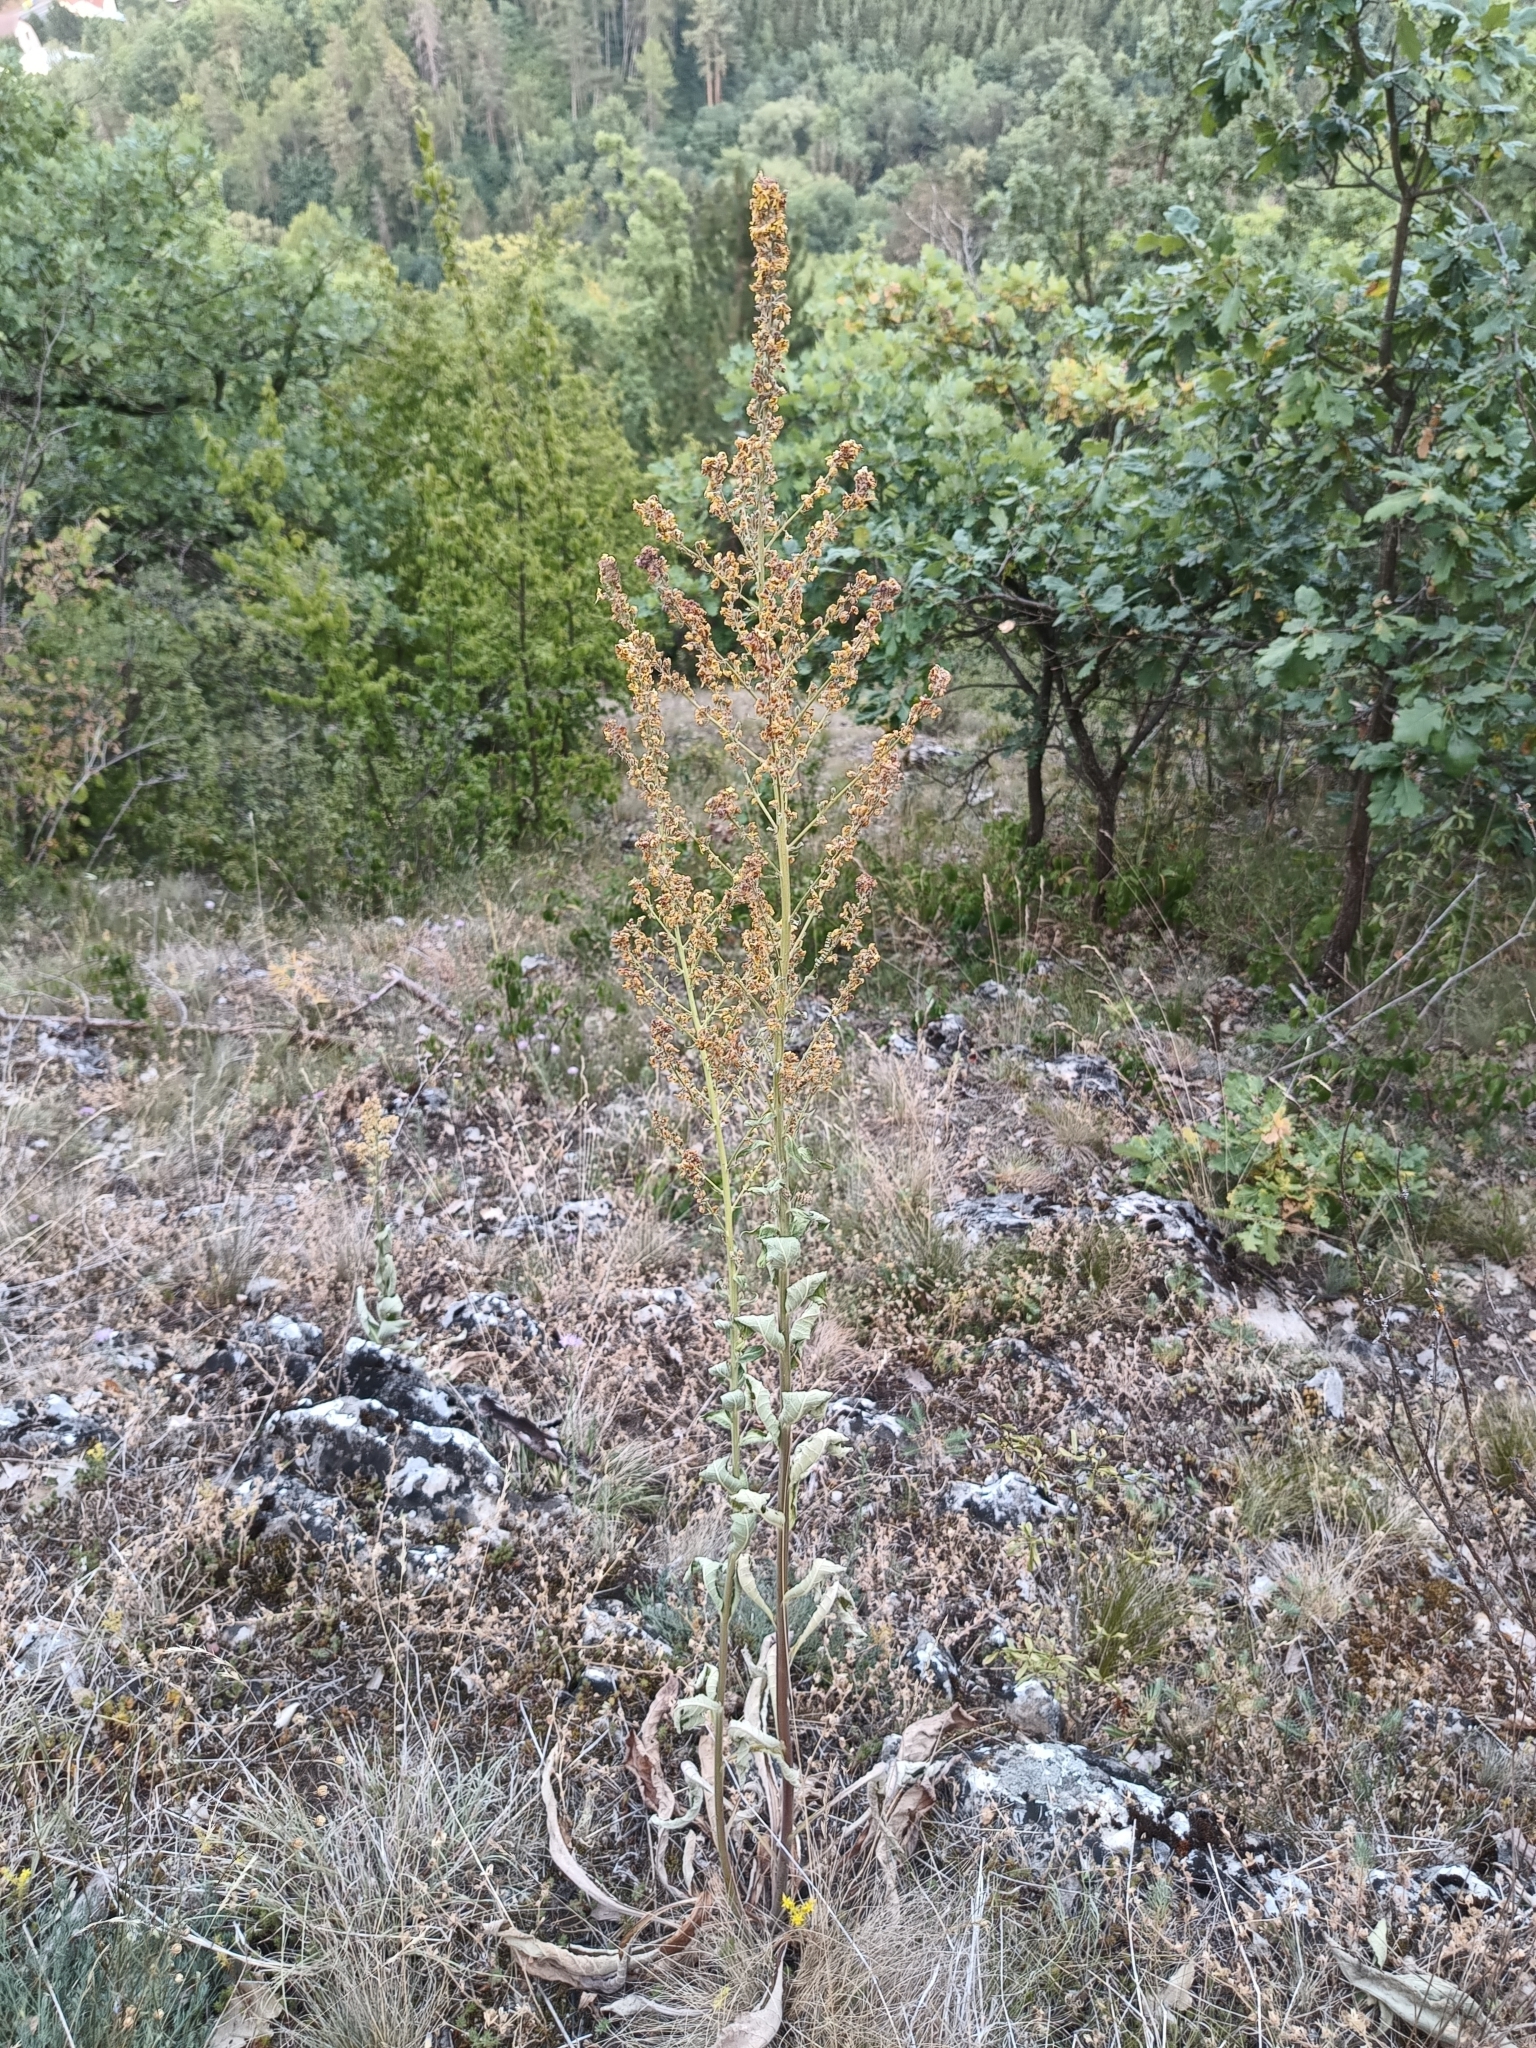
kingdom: Plantae
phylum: Tracheophyta
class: Magnoliopsida
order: Lamiales
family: Scrophulariaceae
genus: Verbascum
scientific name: Verbascum lychnitis
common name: White mullein
